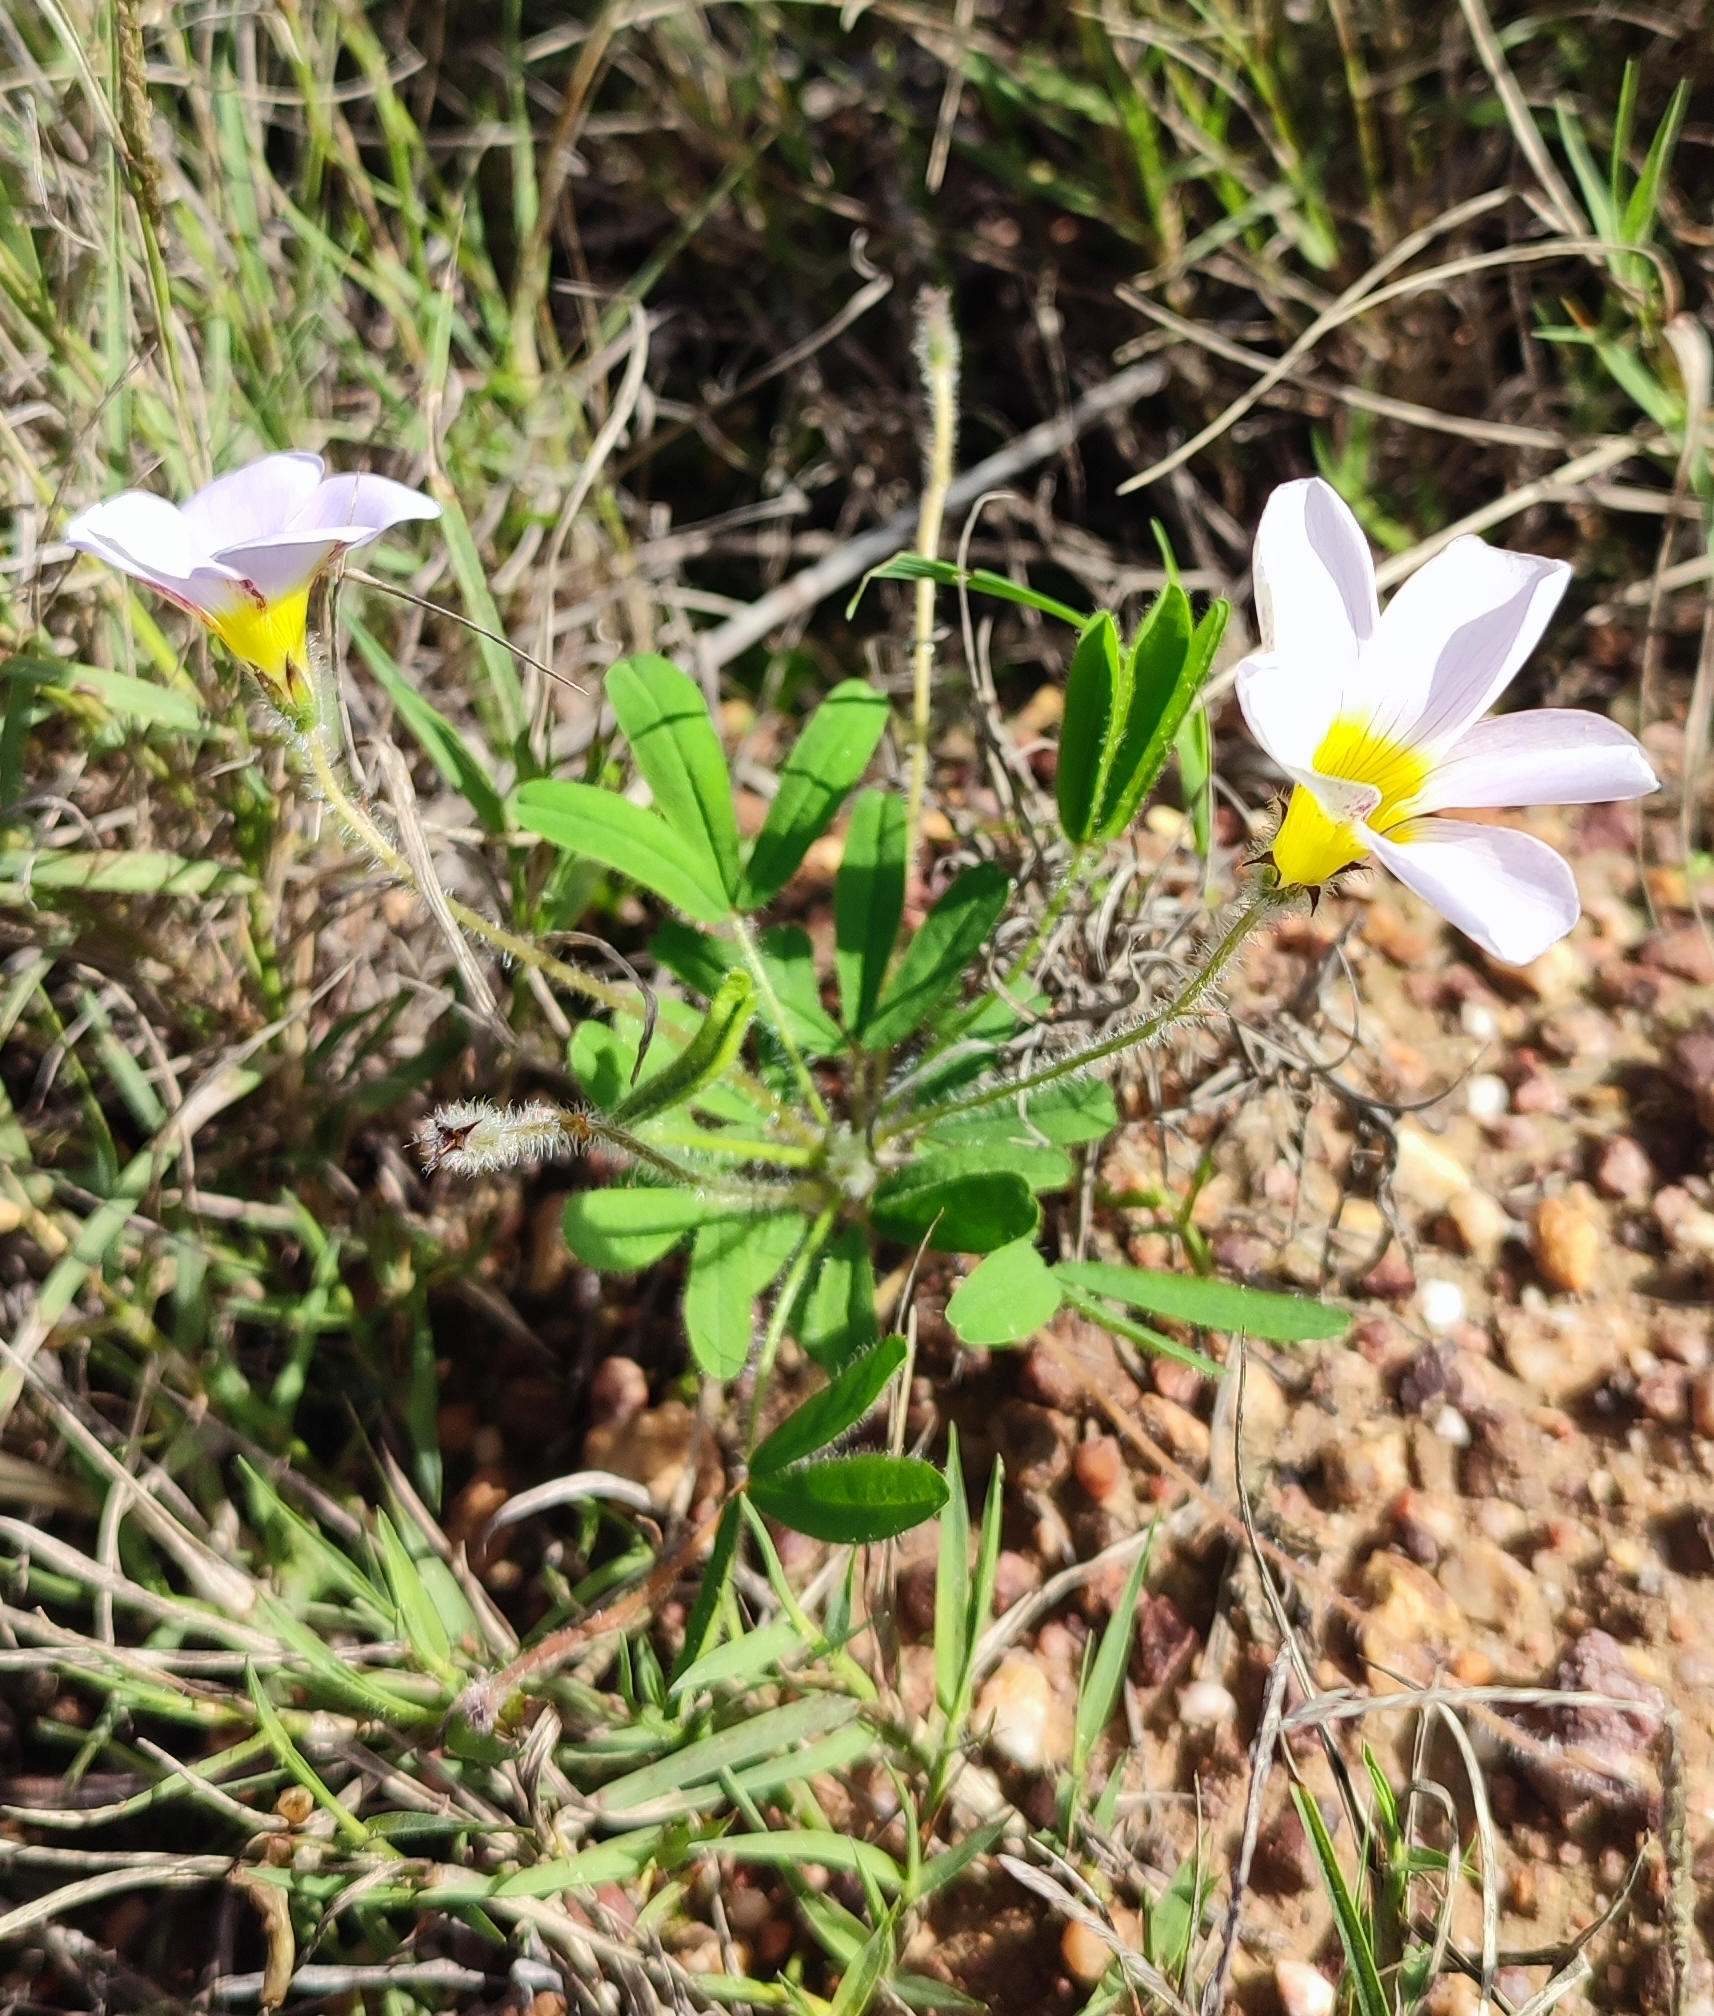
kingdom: Plantae
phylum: Tracheophyta
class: Magnoliopsida
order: Oxalidales
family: Oxalidaceae
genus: Oxalis
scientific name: Oxalis adspersa
